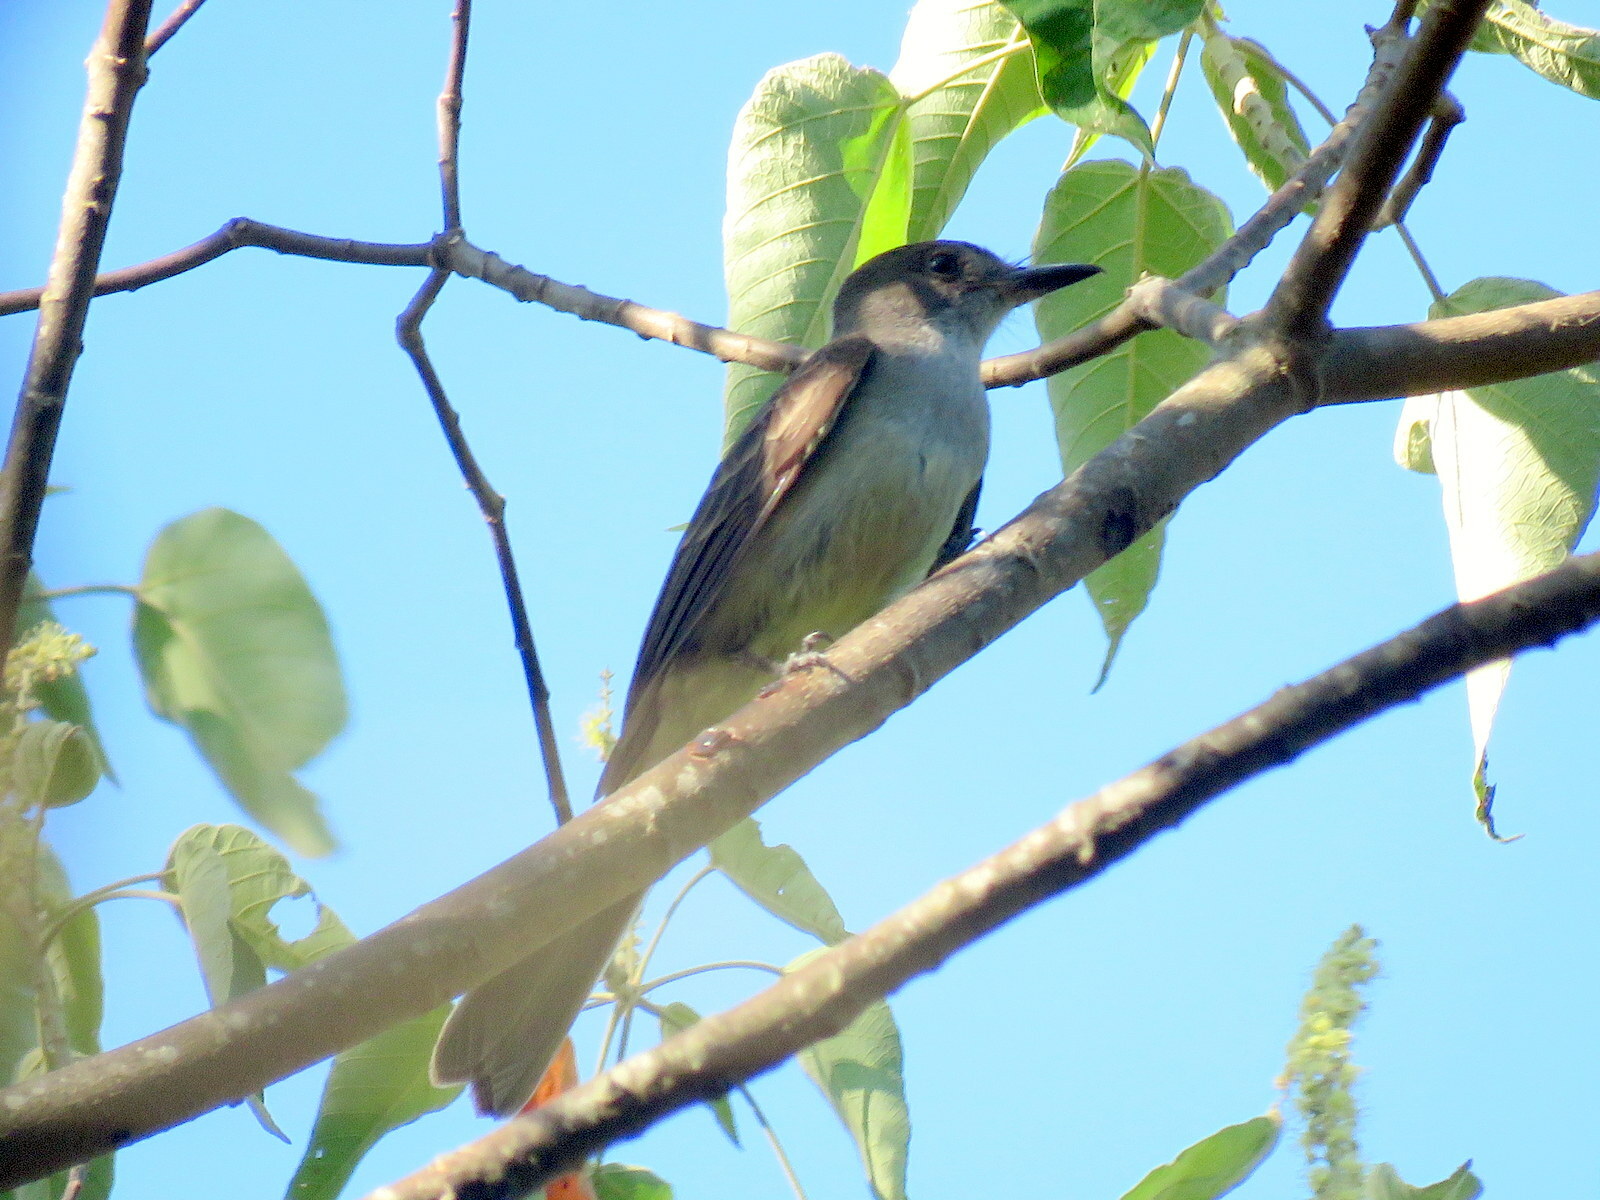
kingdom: Animalia
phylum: Chordata
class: Aves
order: Passeriformes
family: Tyrannidae
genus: Myiarchus
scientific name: Myiarchus ferox
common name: Short-crested flycatcher
